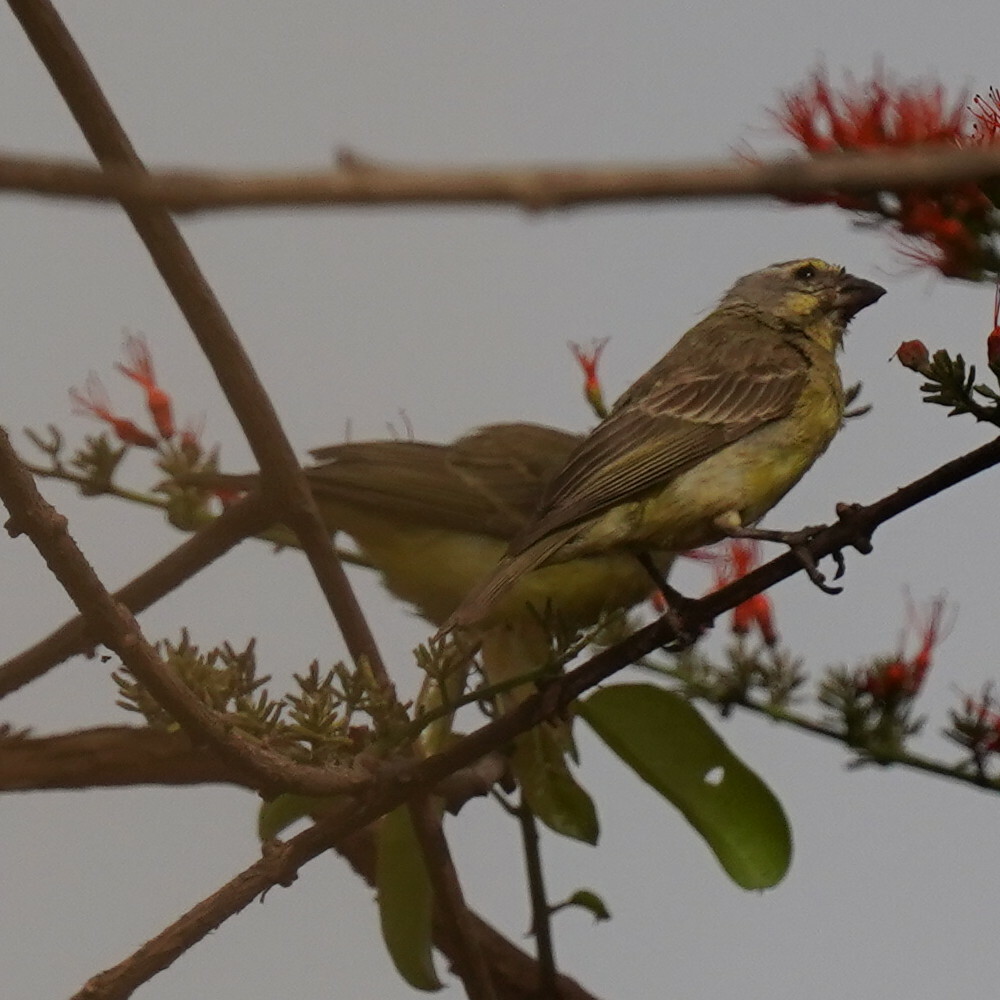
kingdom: Animalia
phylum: Chordata
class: Aves
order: Passeriformes
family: Fringillidae
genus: Crithagra
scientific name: Crithagra mozambica
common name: Yellow-fronted canary
